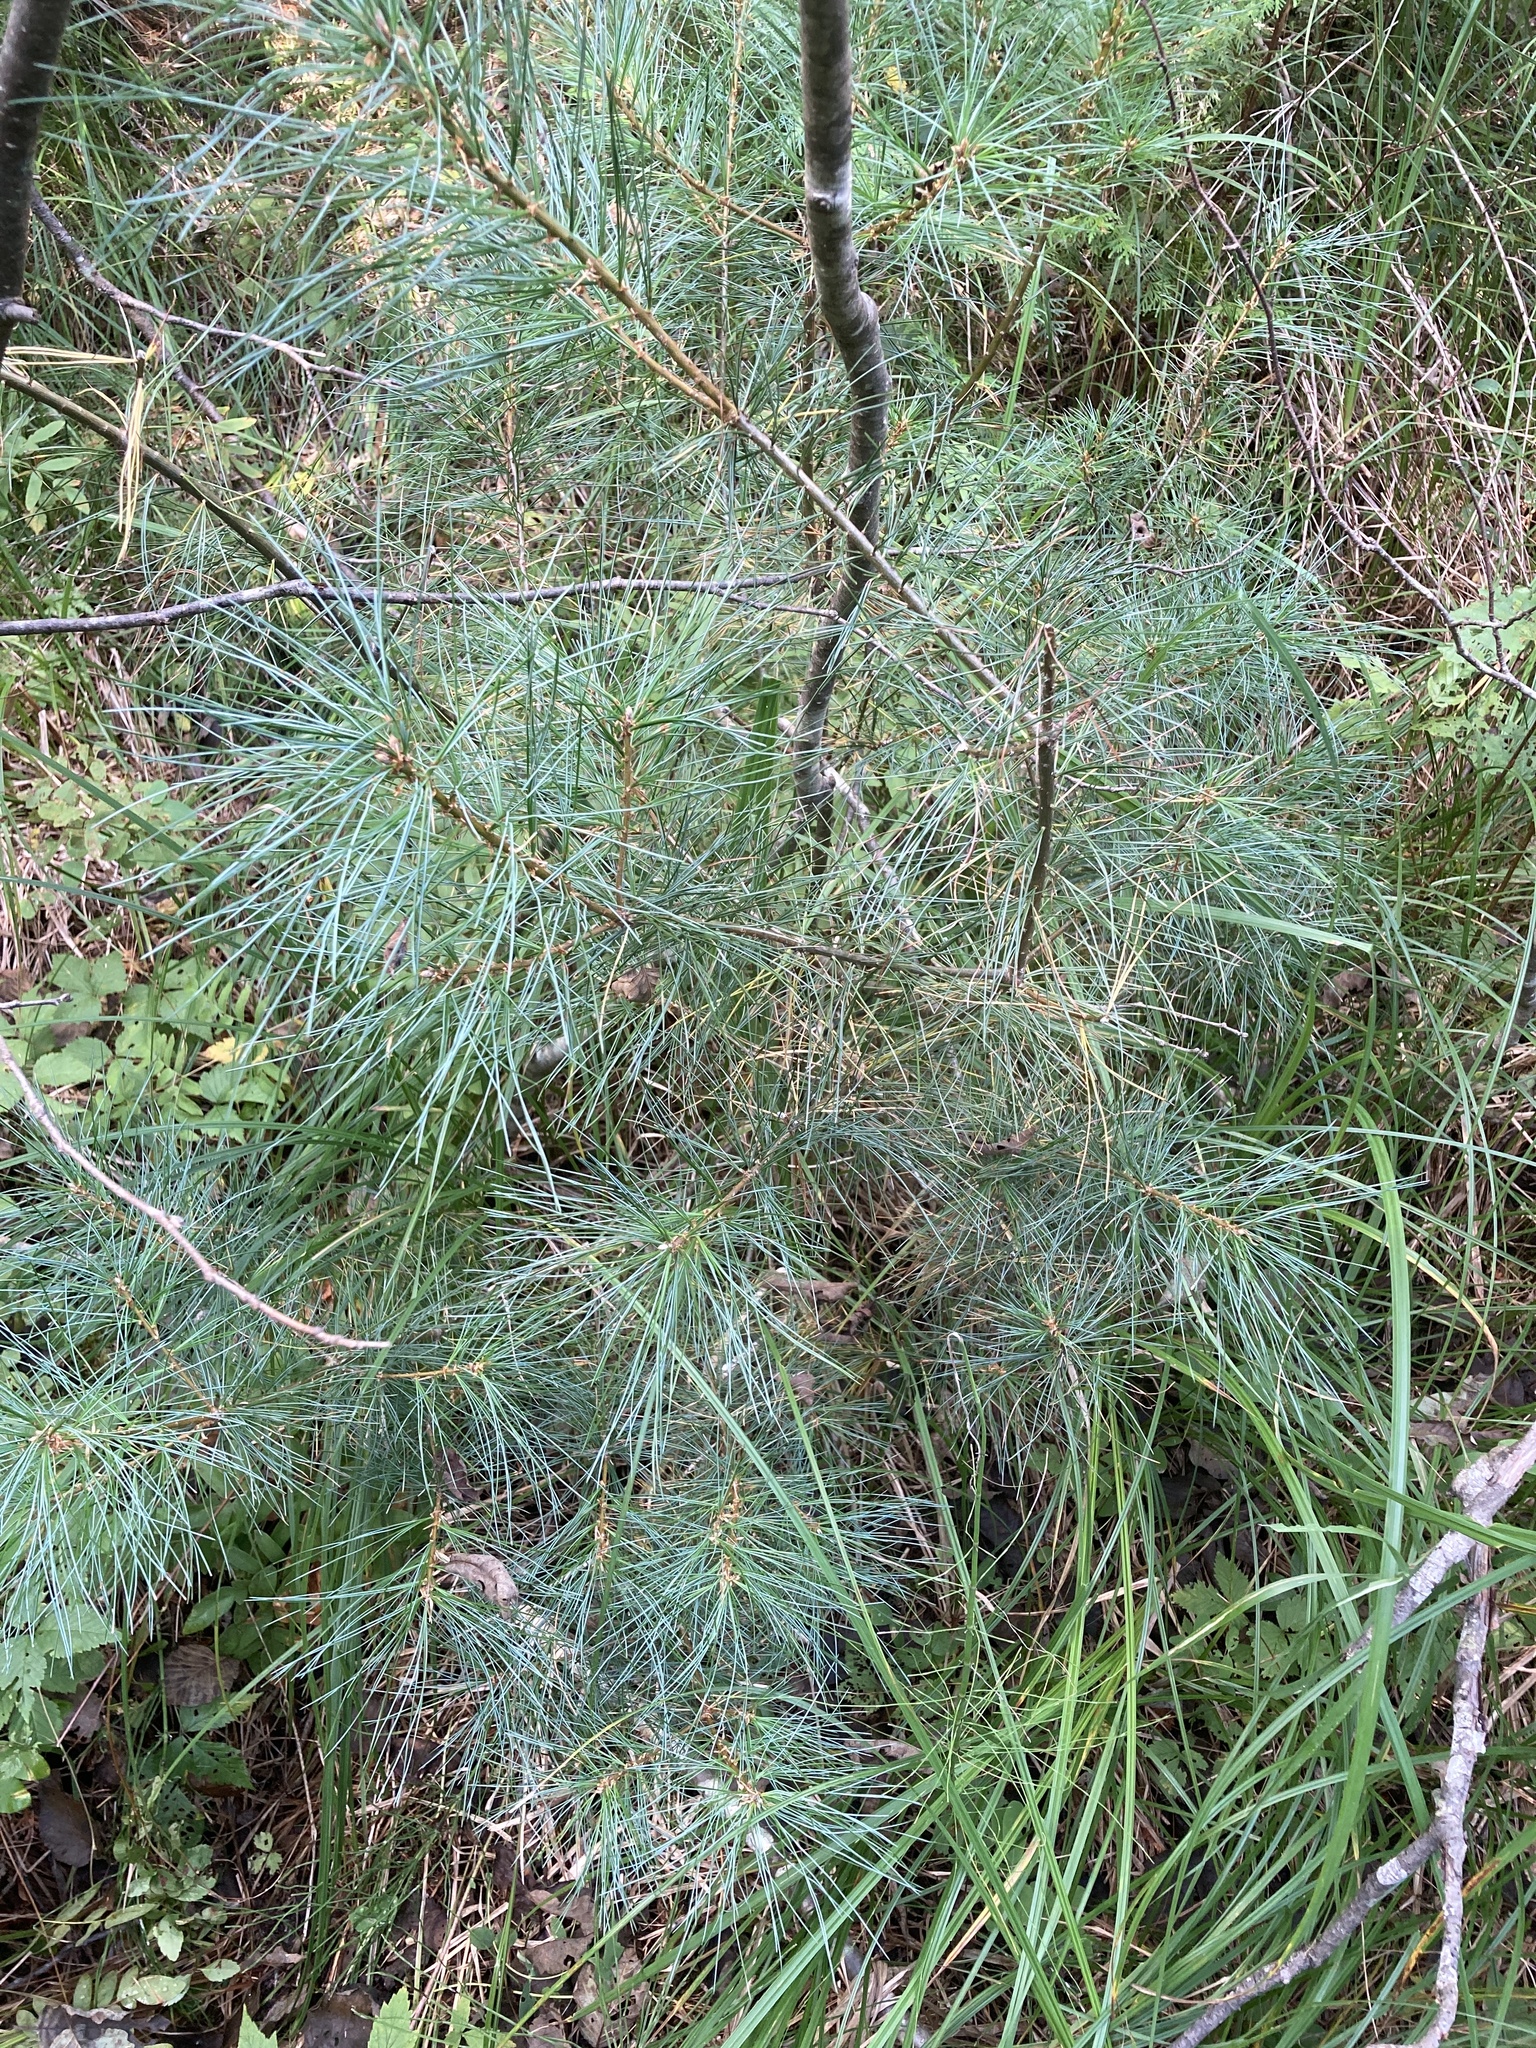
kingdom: Plantae
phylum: Tracheophyta
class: Pinopsida
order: Pinales
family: Pinaceae
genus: Pinus
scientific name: Pinus strobus
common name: Weymouth pine
